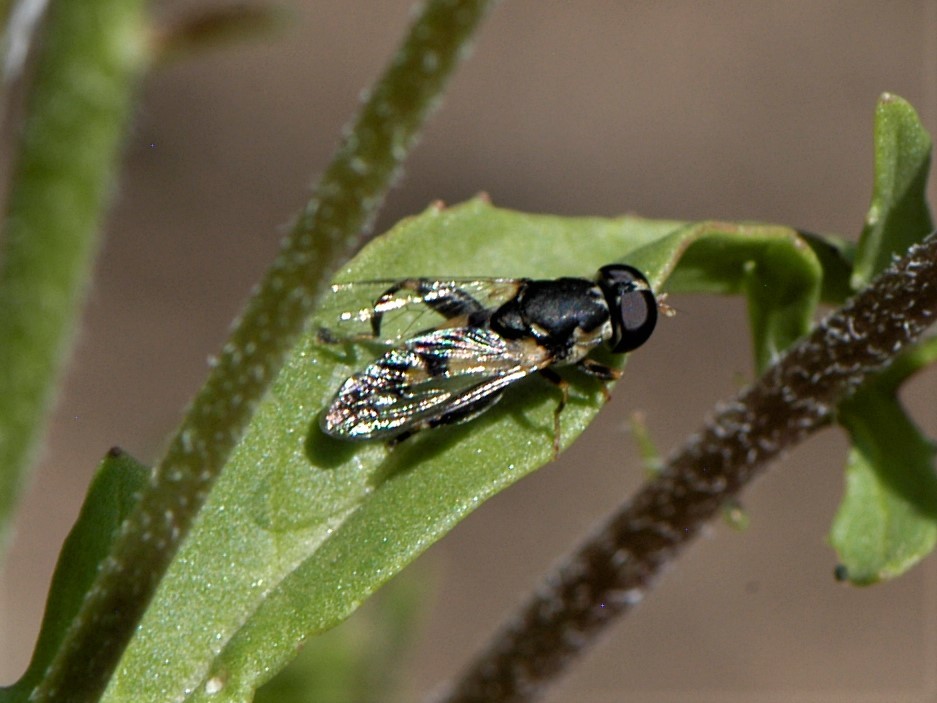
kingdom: Animalia
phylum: Arthropoda
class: Insecta
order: Diptera
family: Syrphidae
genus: Syritta
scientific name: Syritta pipiens
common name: Hover fly
